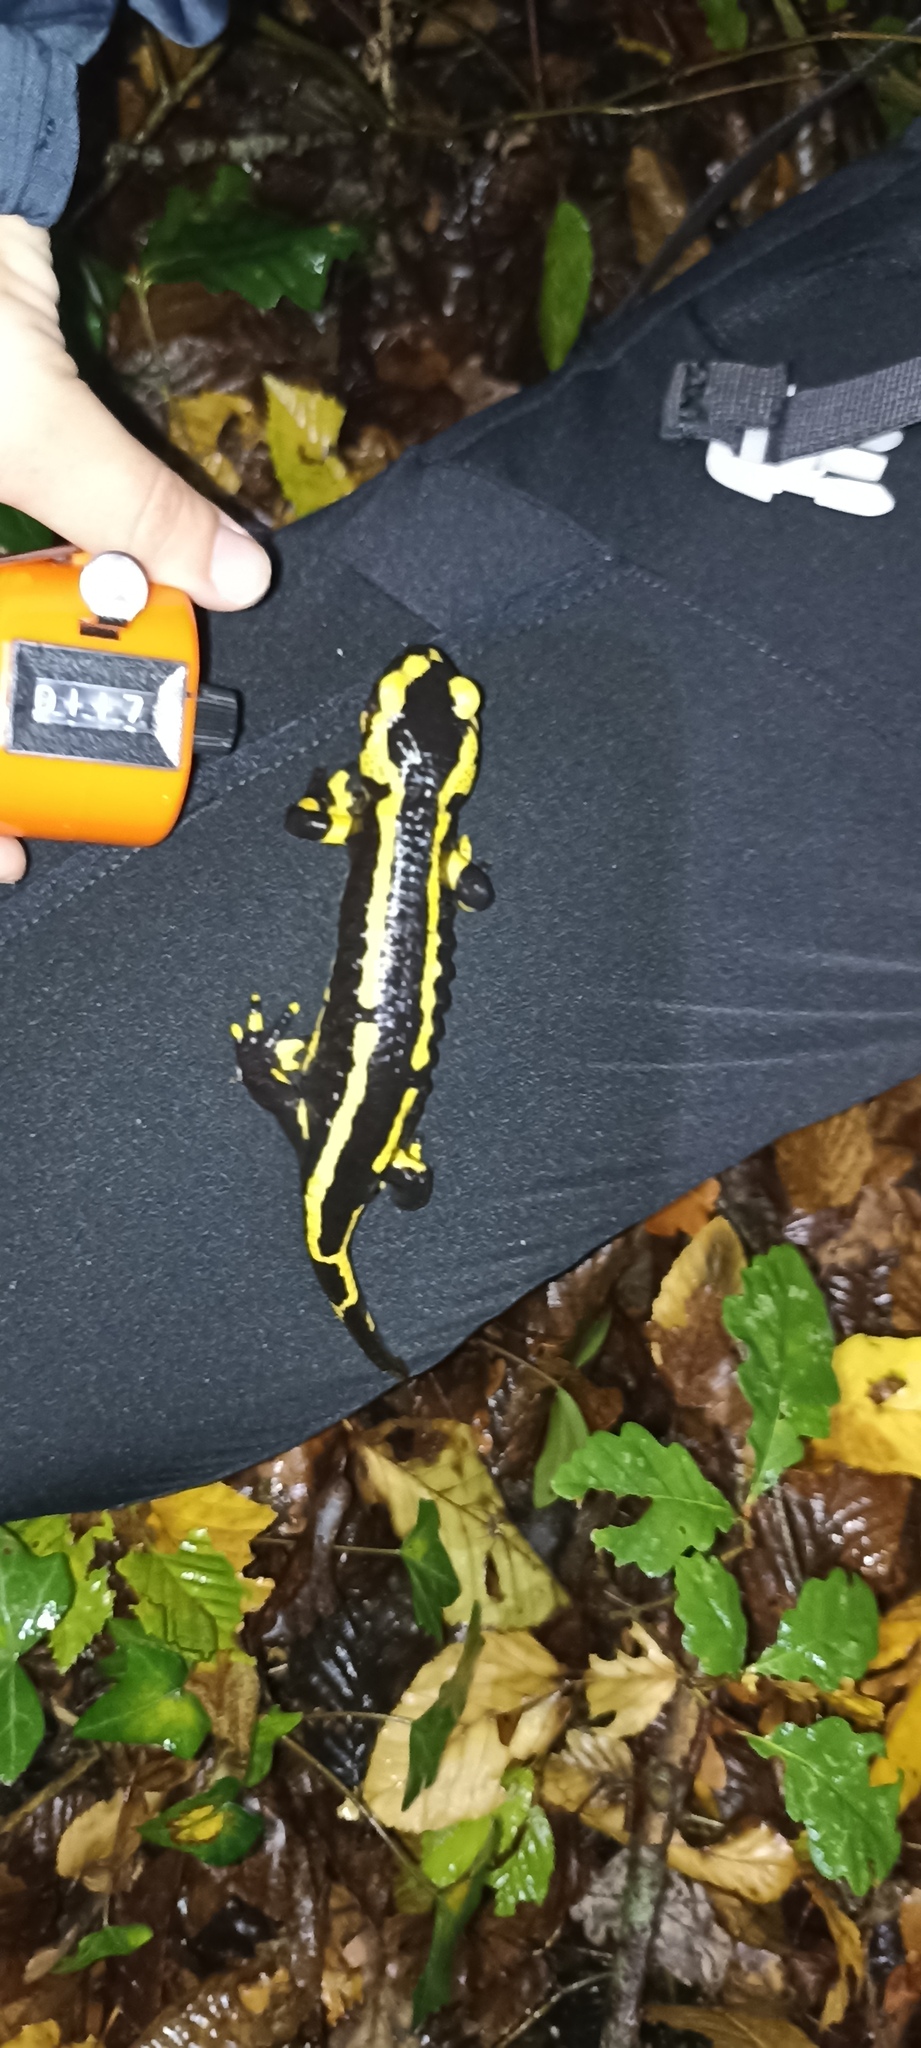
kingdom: Animalia
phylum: Chordata
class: Amphibia
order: Caudata
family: Salamandridae
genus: Salamandra
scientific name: Salamandra salamandra
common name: Fire salamander
